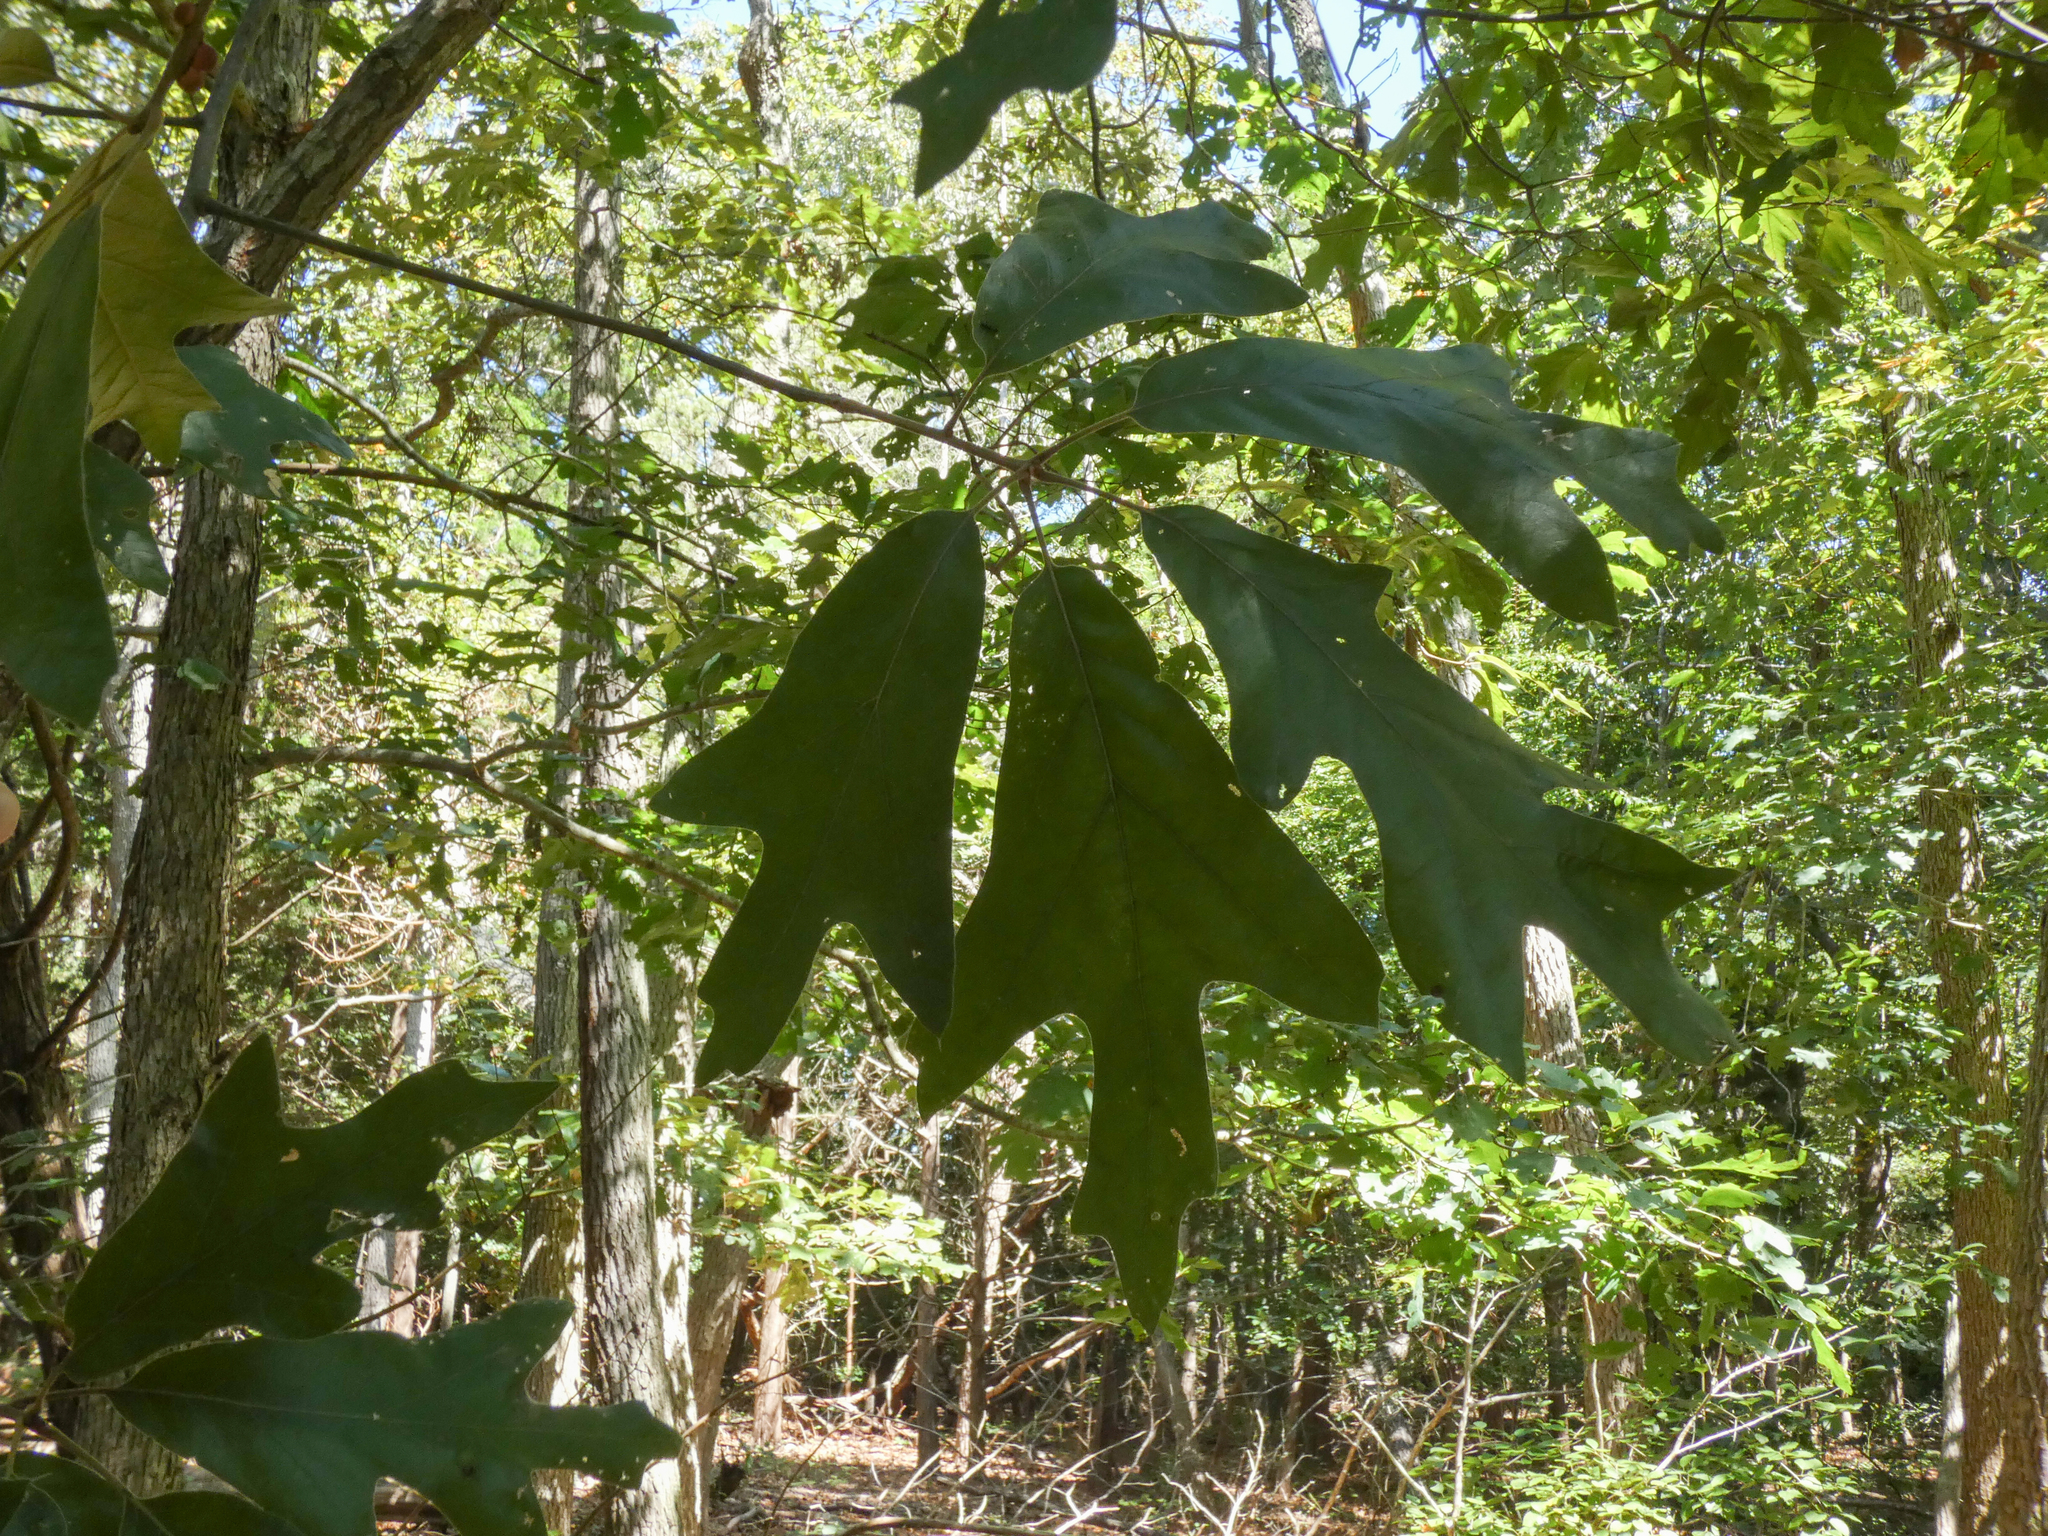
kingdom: Plantae
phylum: Tracheophyta
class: Magnoliopsida
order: Fagales
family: Fagaceae
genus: Quercus
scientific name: Quercus falcata
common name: Southern red oak
